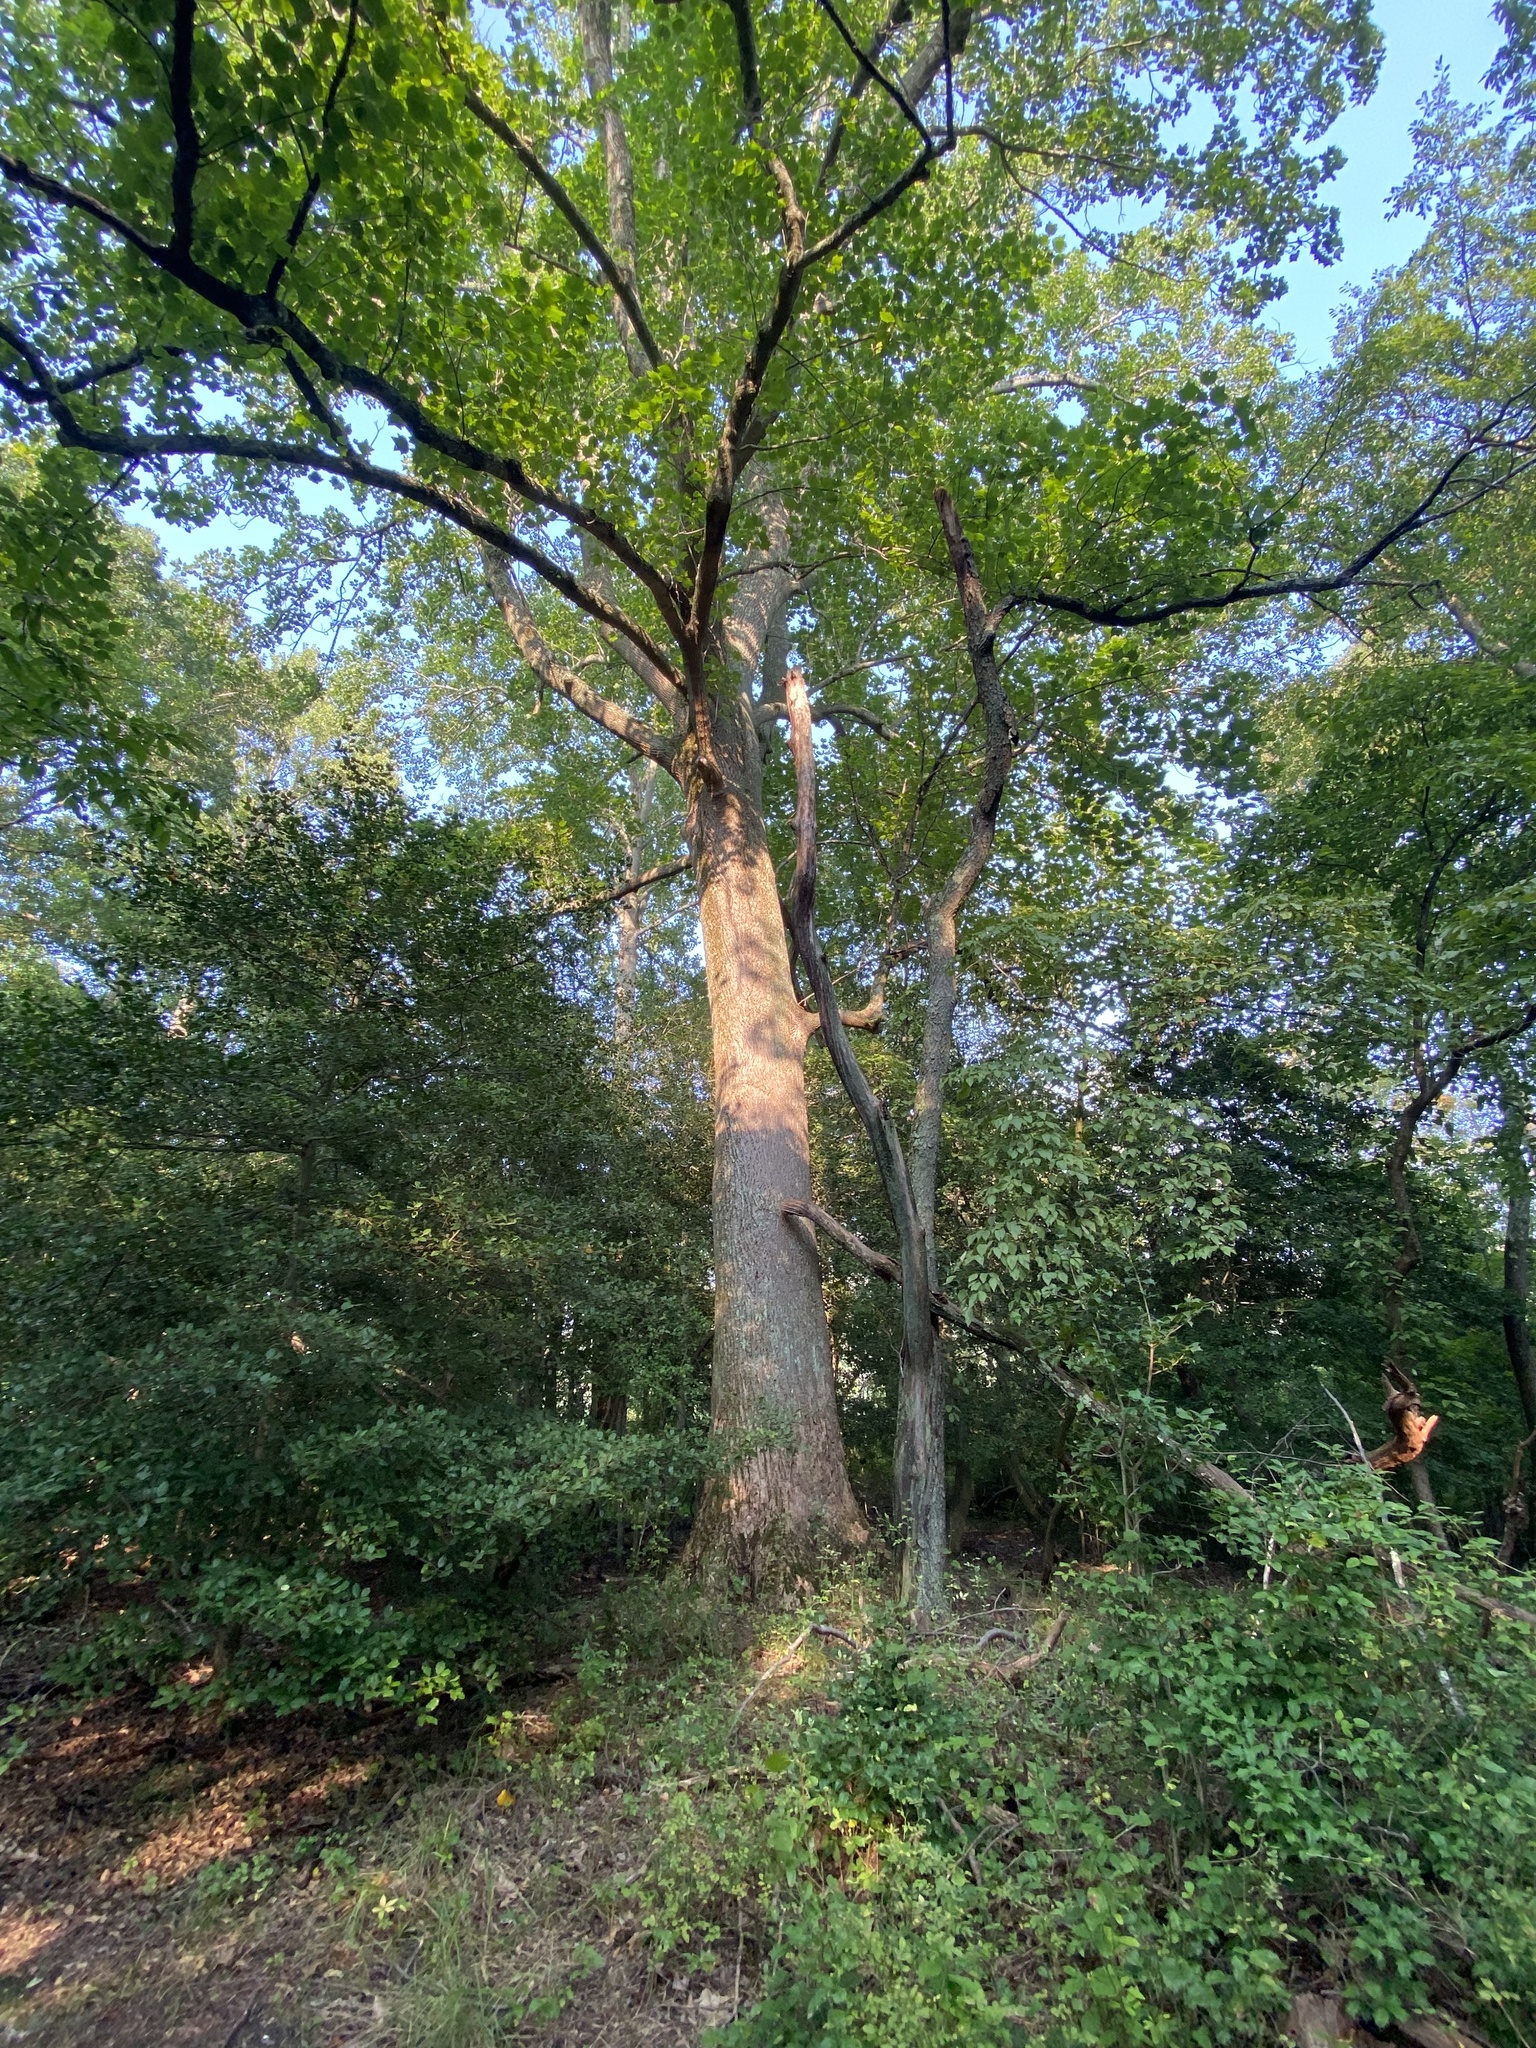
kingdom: Plantae
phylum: Tracheophyta
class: Magnoliopsida
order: Magnoliales
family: Magnoliaceae
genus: Liriodendron
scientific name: Liriodendron tulipifera
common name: Tulip tree
